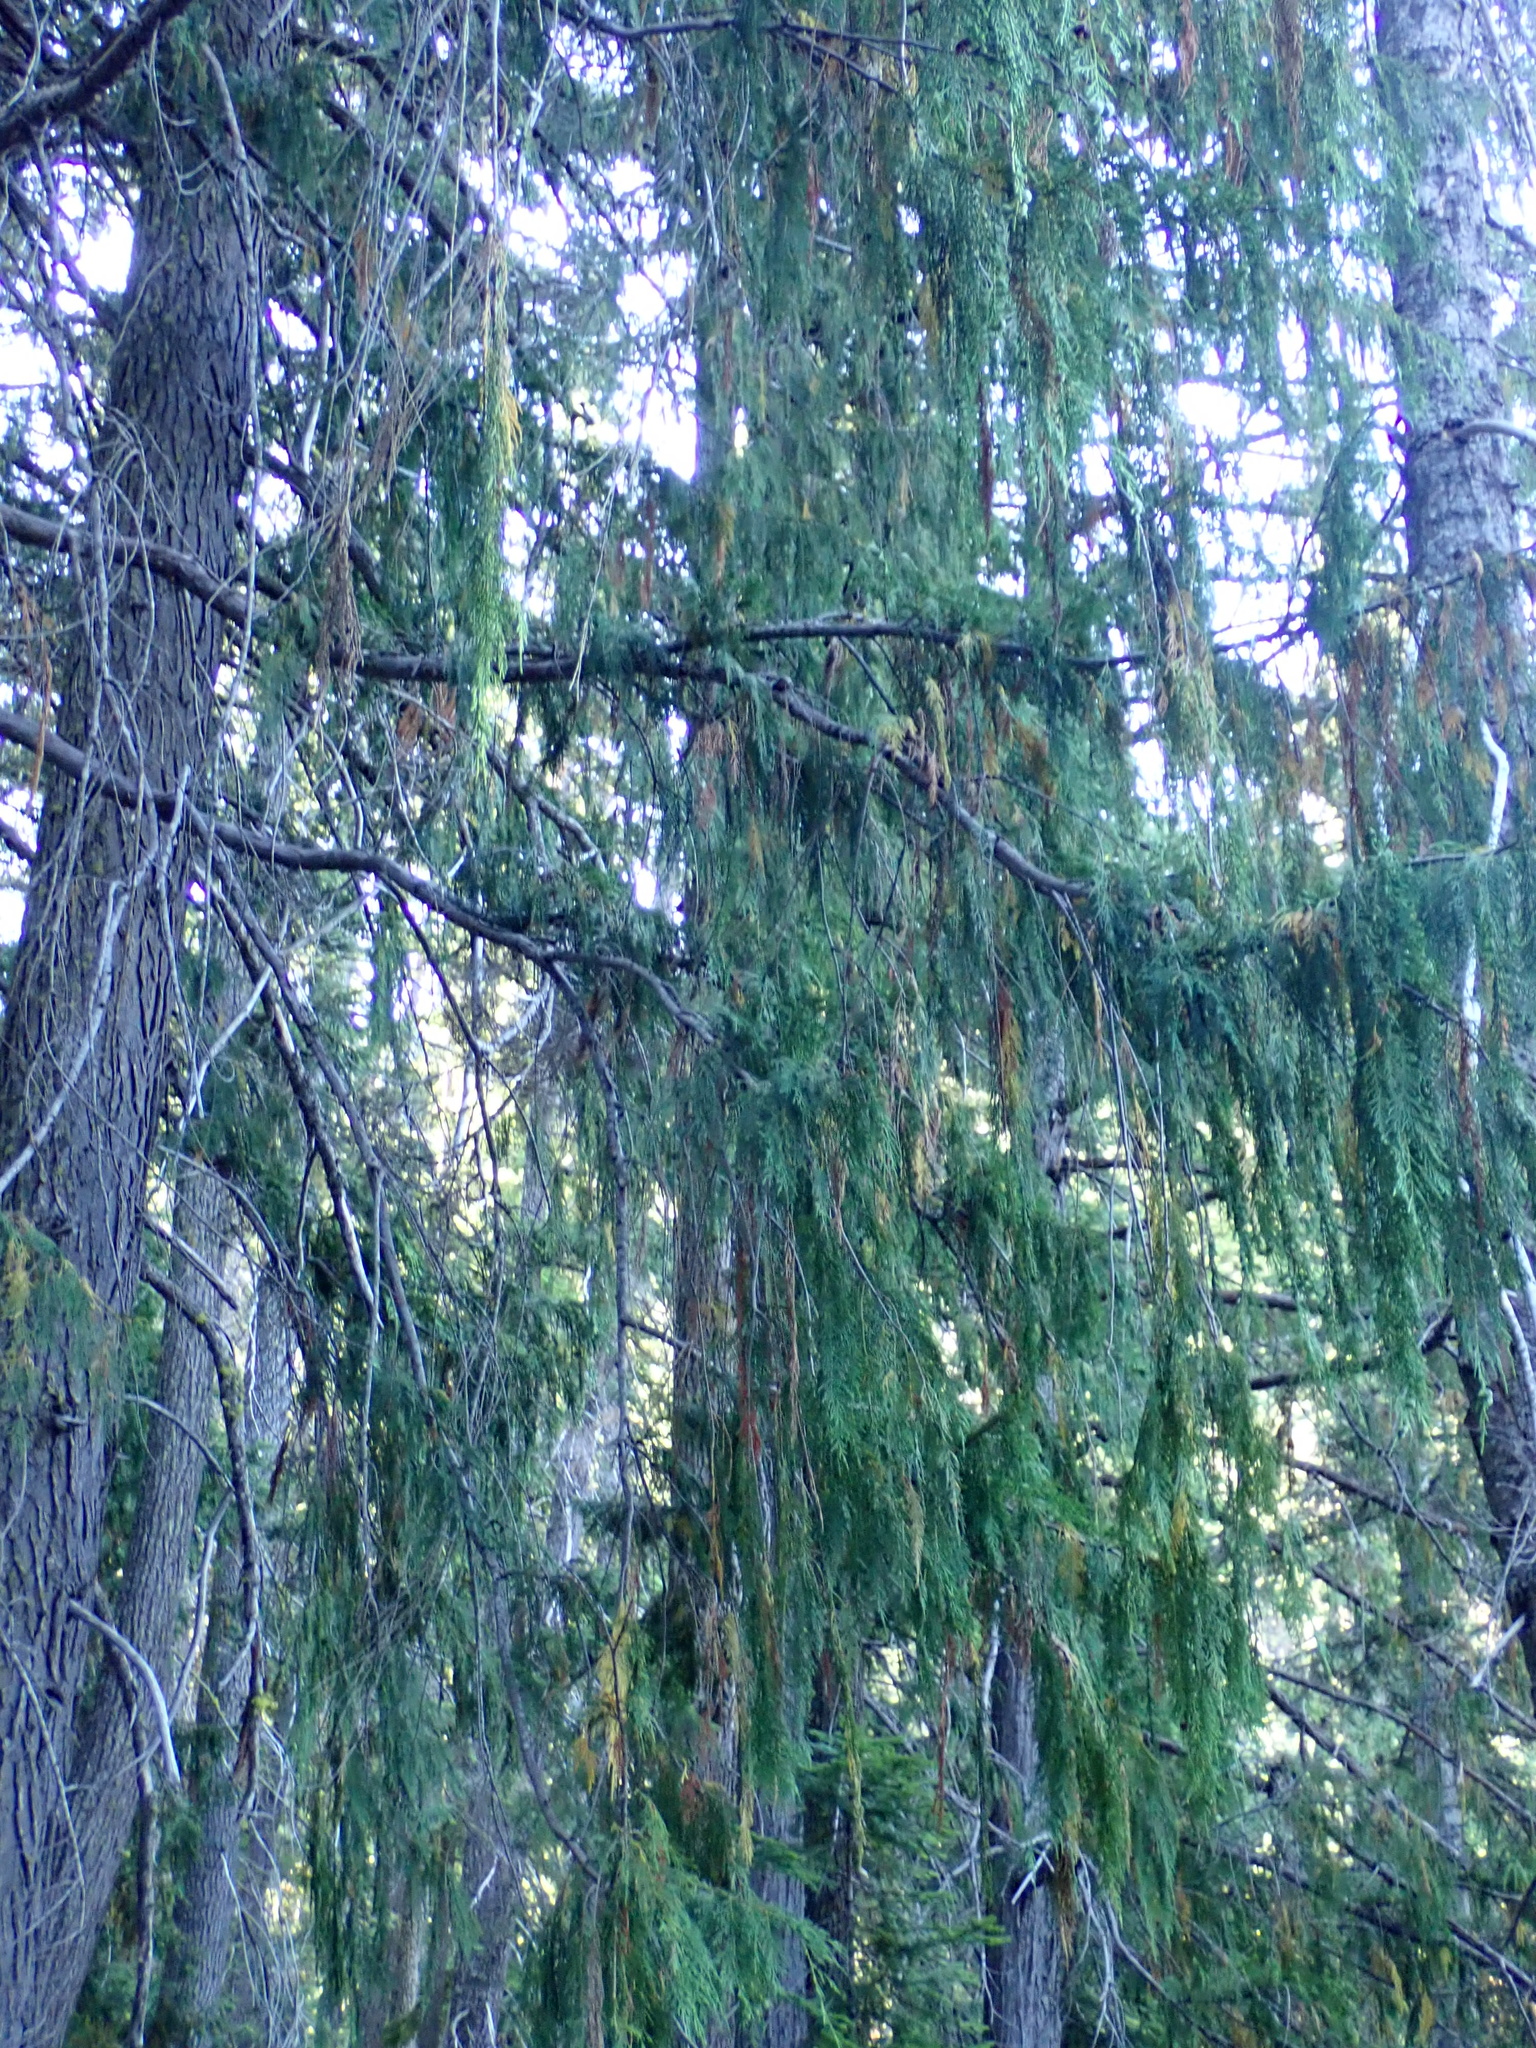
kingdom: Plantae
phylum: Tracheophyta
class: Pinopsida
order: Pinales
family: Cupressaceae
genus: Xanthocyparis
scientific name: Xanthocyparis nootkatensis
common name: Nootka cypress
